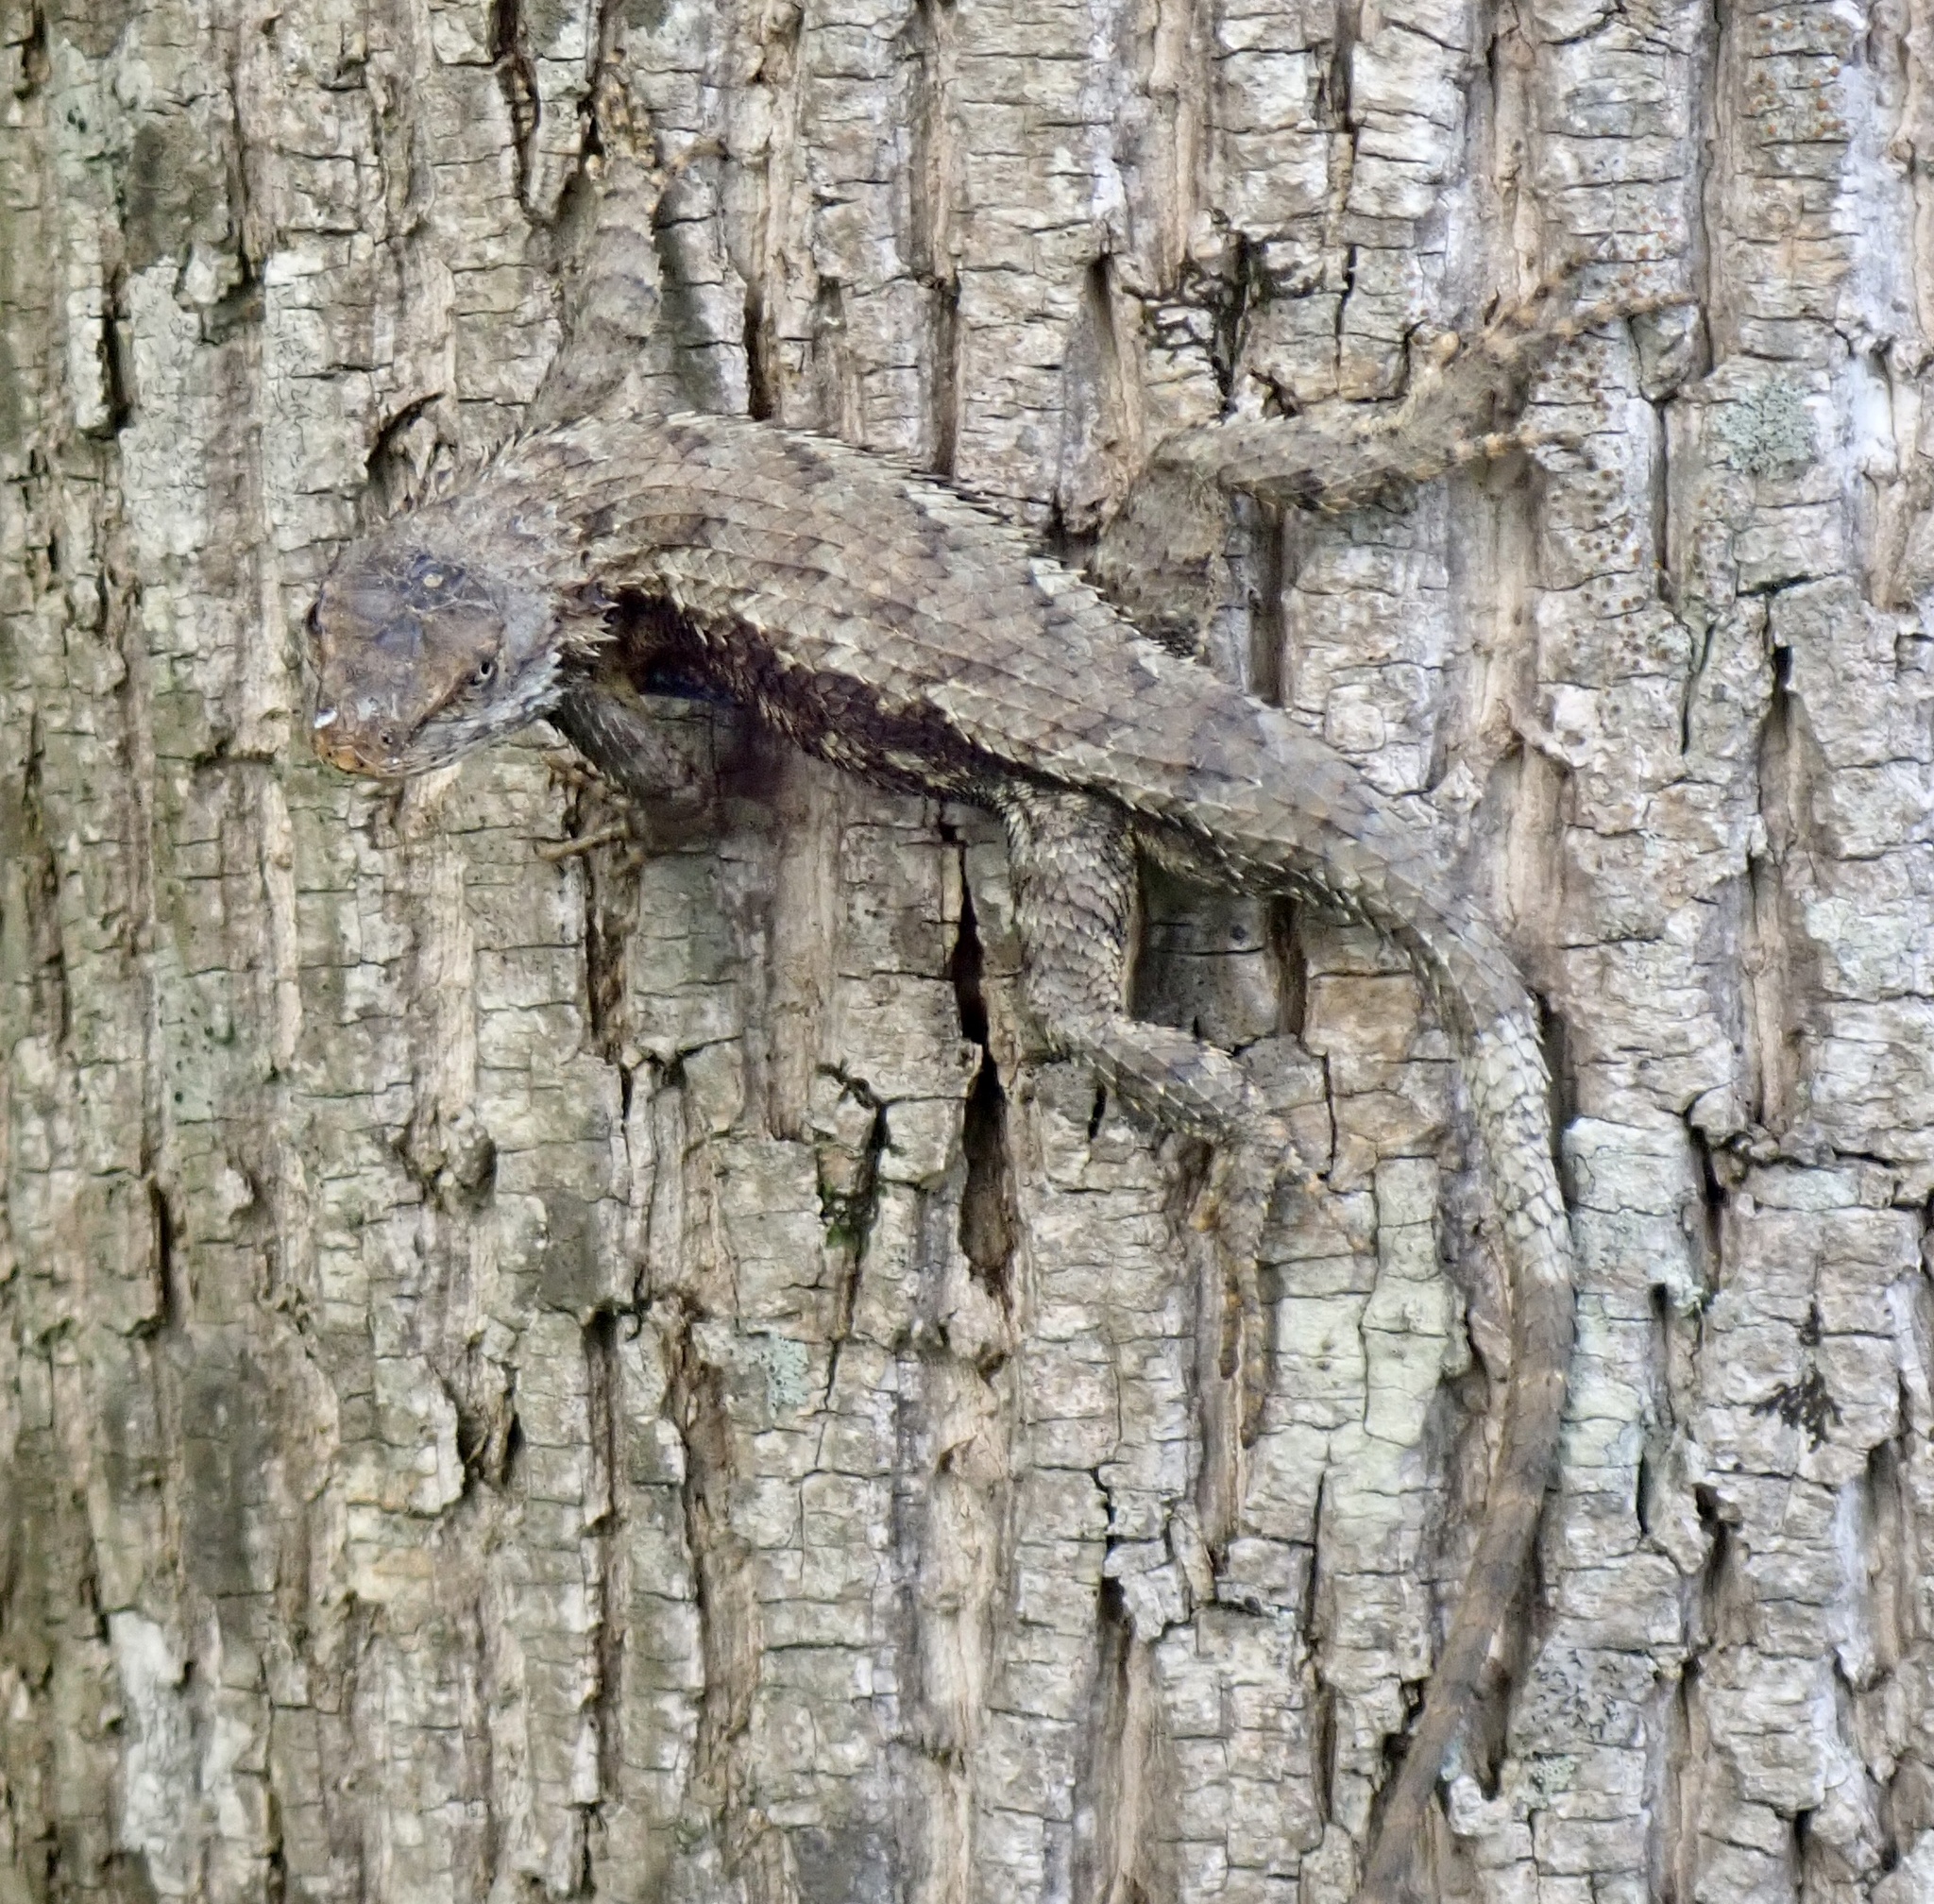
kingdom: Animalia
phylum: Chordata
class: Squamata
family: Phrynosomatidae
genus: Sceloporus
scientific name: Sceloporus undulatus
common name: Eastern fence lizard
